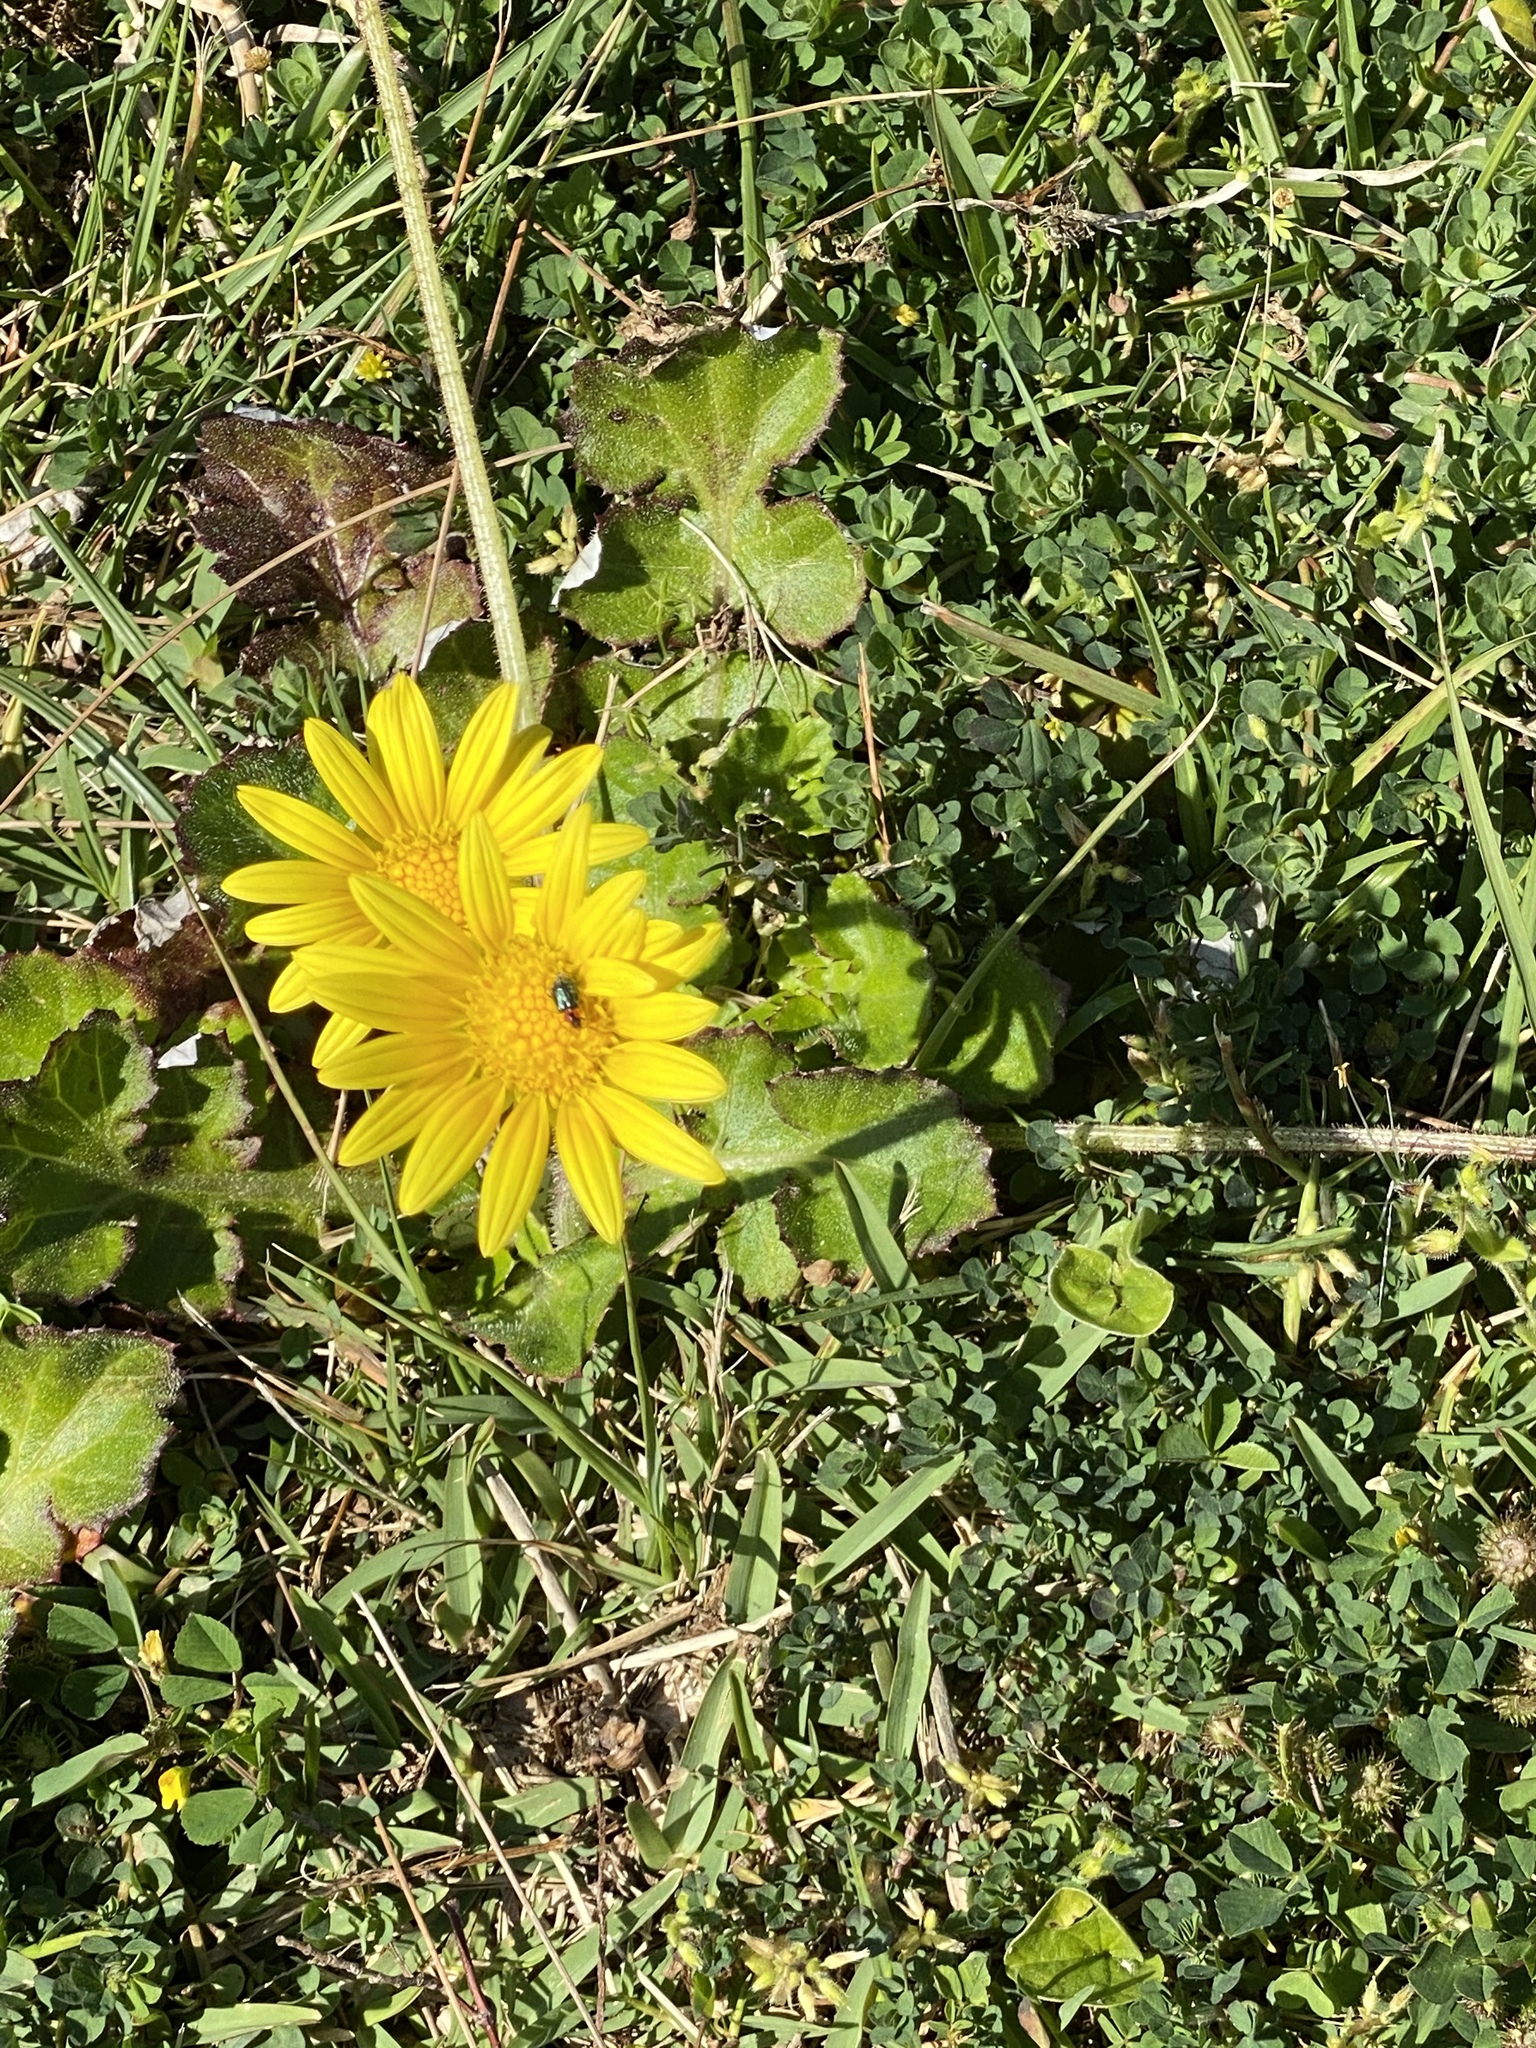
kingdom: Plantae
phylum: Tracheophyta
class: Magnoliopsida
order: Asterales
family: Asteraceae
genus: Arctotheca
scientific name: Arctotheca prostrata
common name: Capeweed
